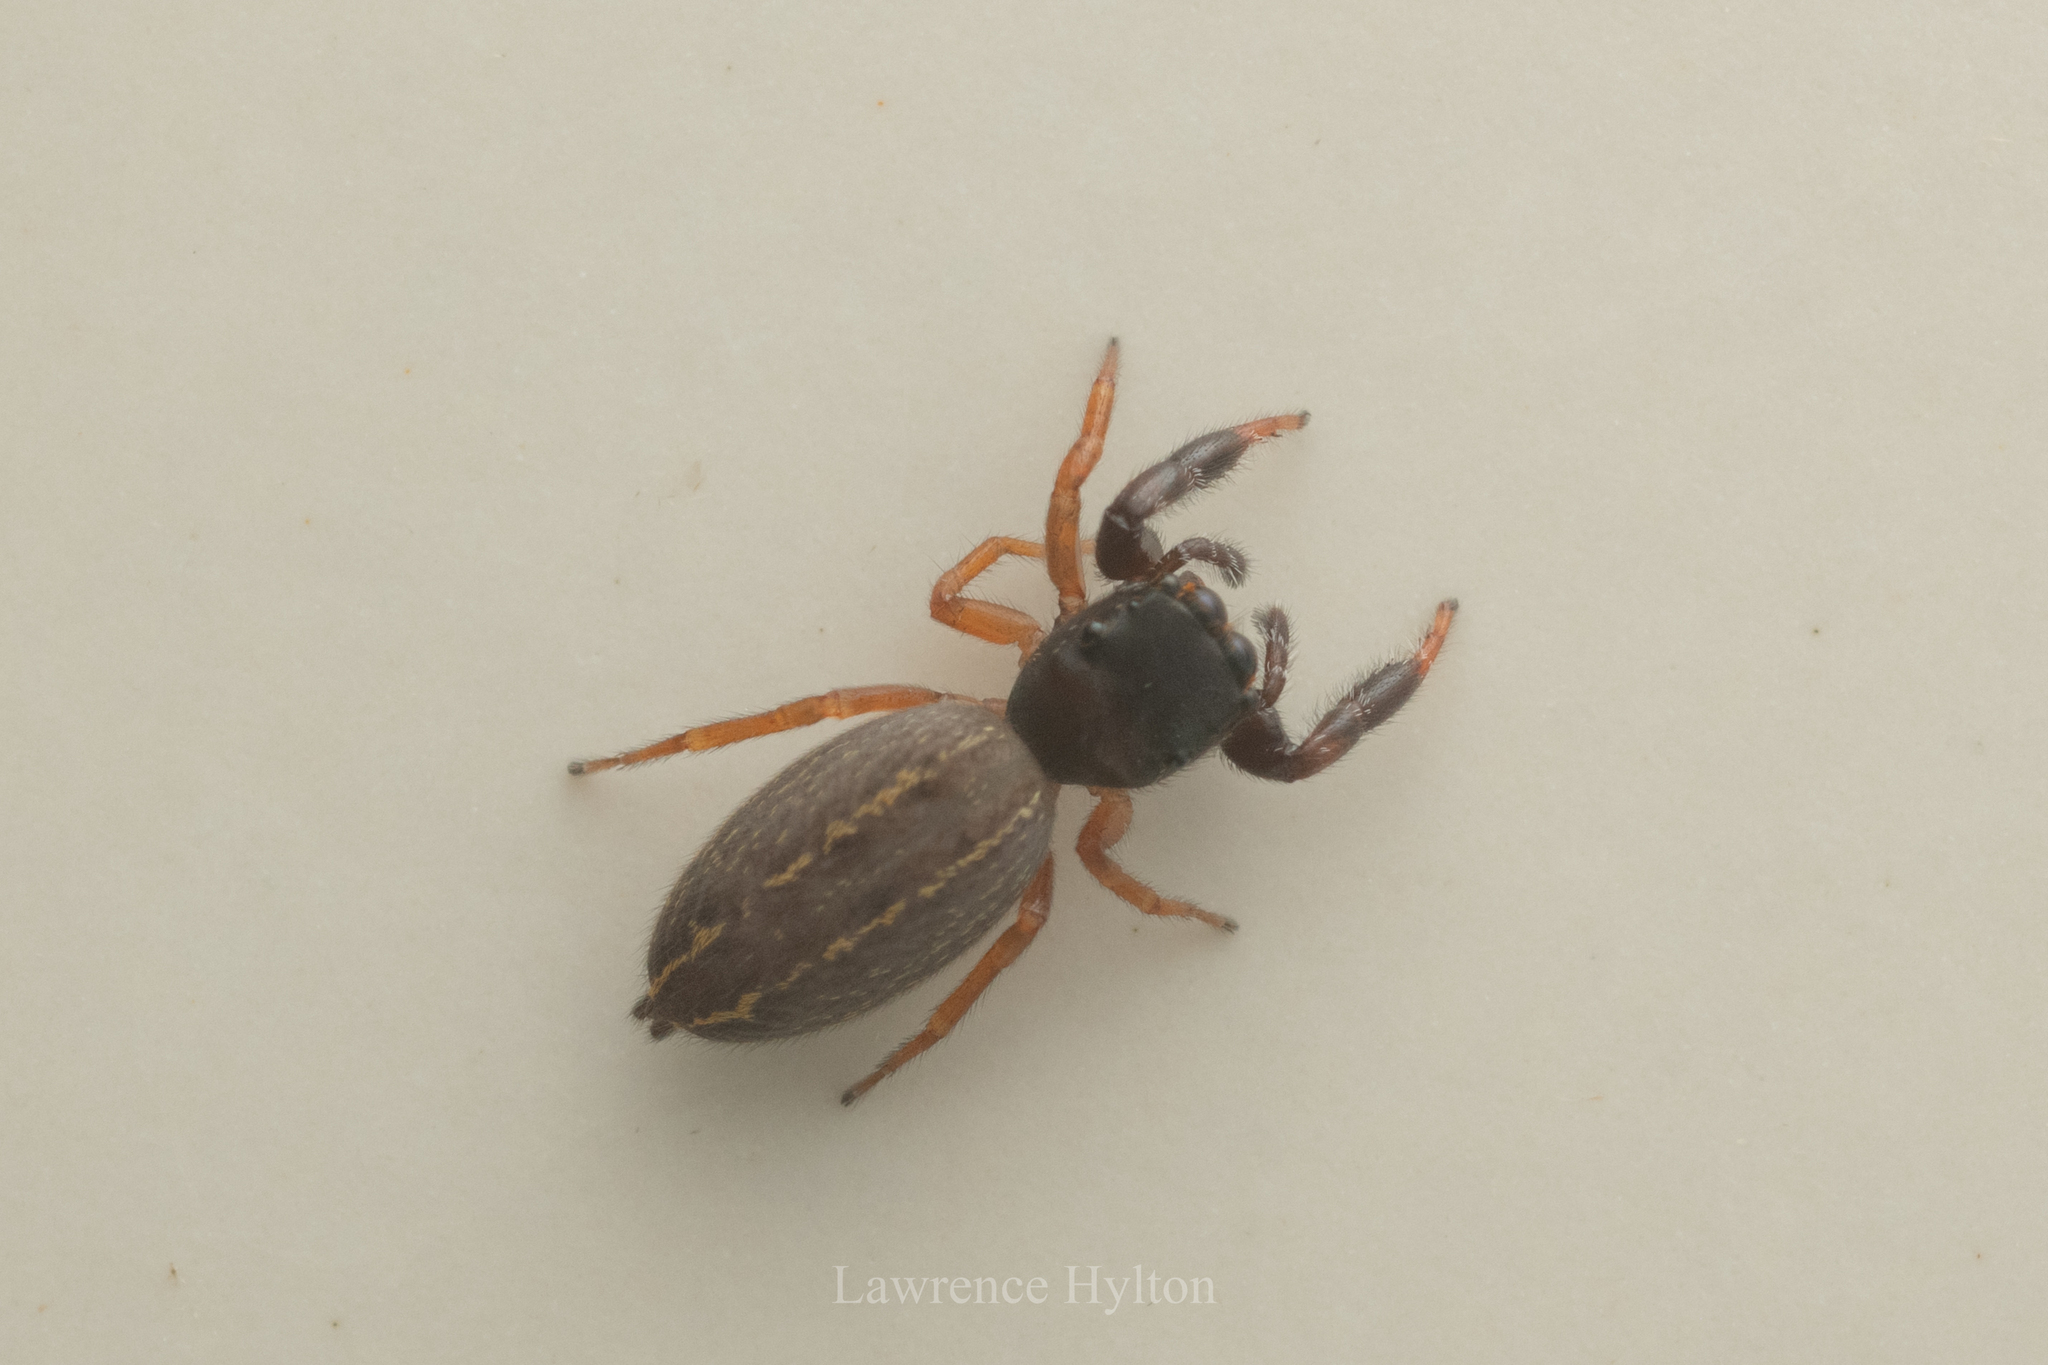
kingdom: Animalia
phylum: Arthropoda
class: Arachnida
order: Araneae
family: Salticidae
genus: Nungia
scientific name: Nungia epigynalis
